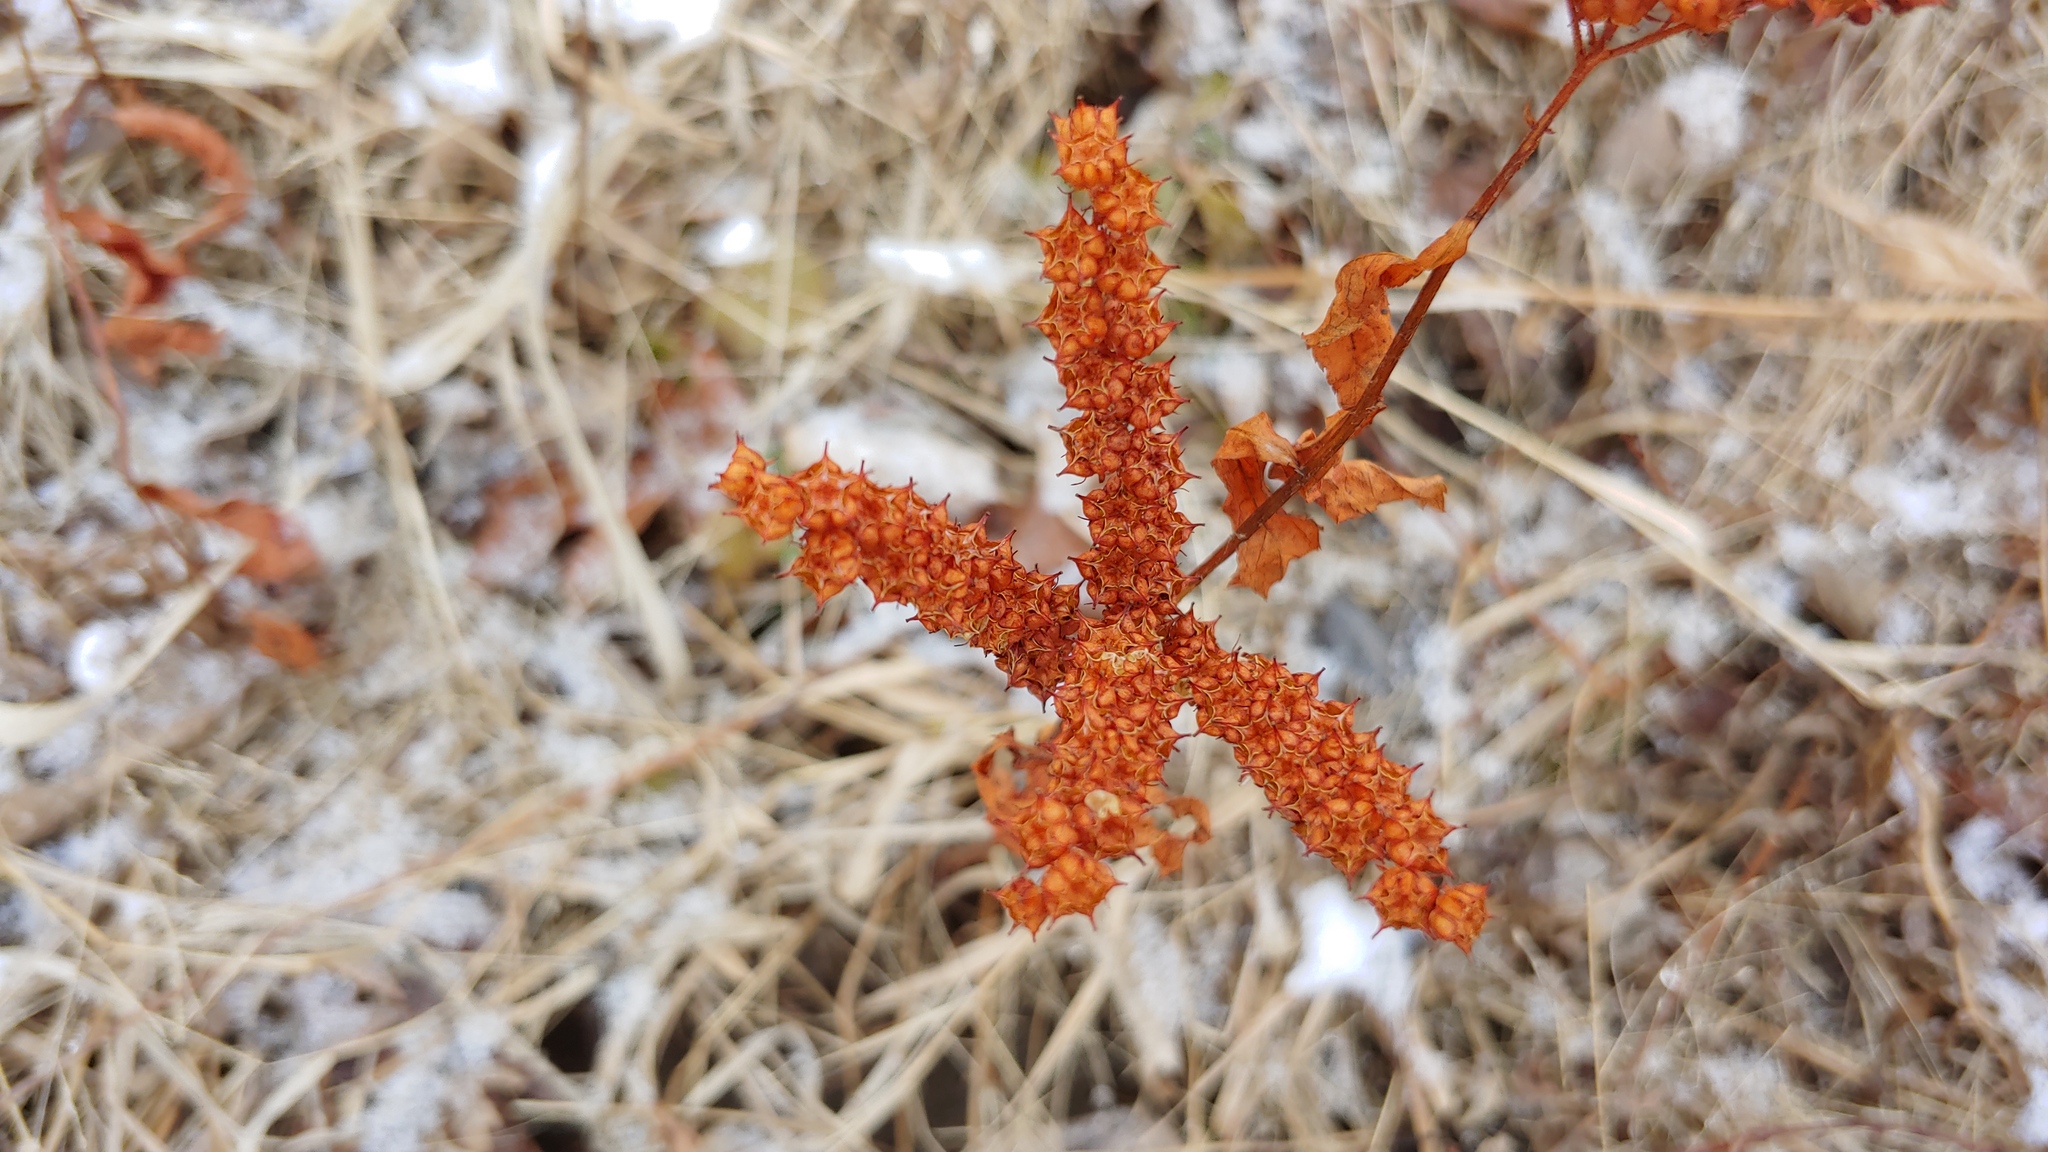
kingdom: Plantae
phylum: Tracheophyta
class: Magnoliopsida
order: Saxifragales
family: Penthoraceae
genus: Penthorum
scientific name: Penthorum sedoides
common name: Ditch stonecrop
